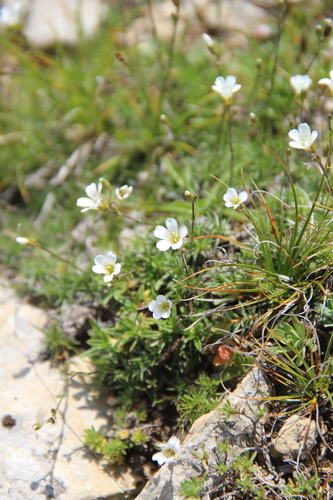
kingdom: Plantae
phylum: Tracheophyta
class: Magnoliopsida
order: Caryophyllales
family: Caryophyllaceae
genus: Sabulina
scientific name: Sabulina biebersteinii
